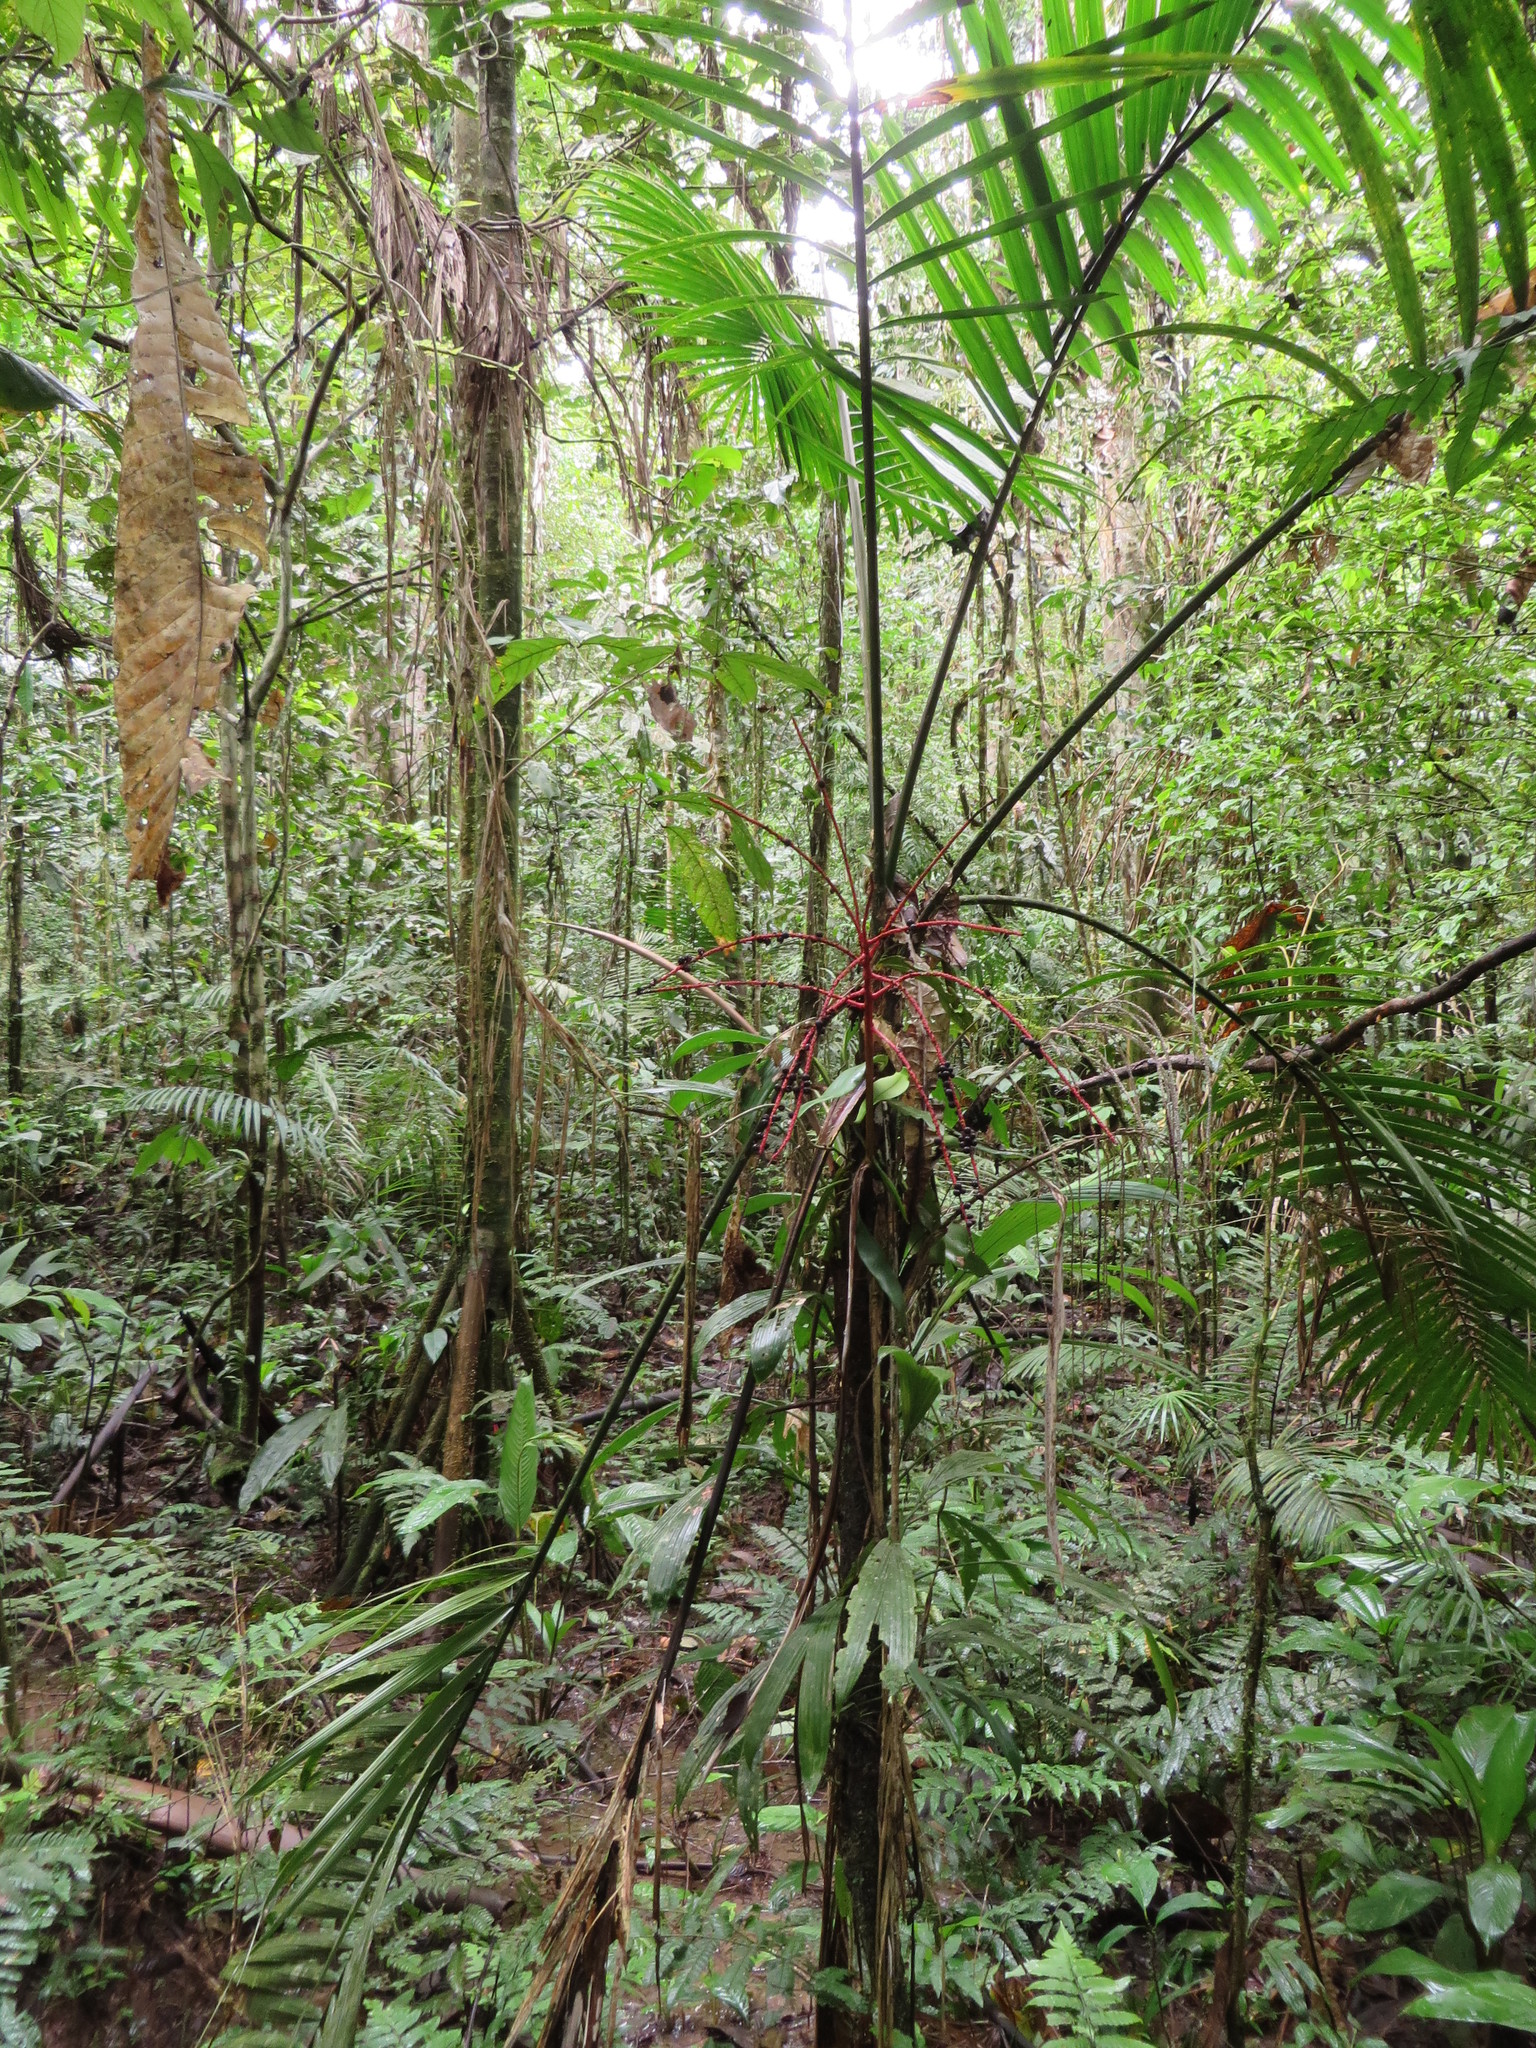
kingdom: Plantae
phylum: Tracheophyta
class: Liliopsida
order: Arecales
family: Arecaceae
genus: Prestoea
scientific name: Prestoea schultzeana
